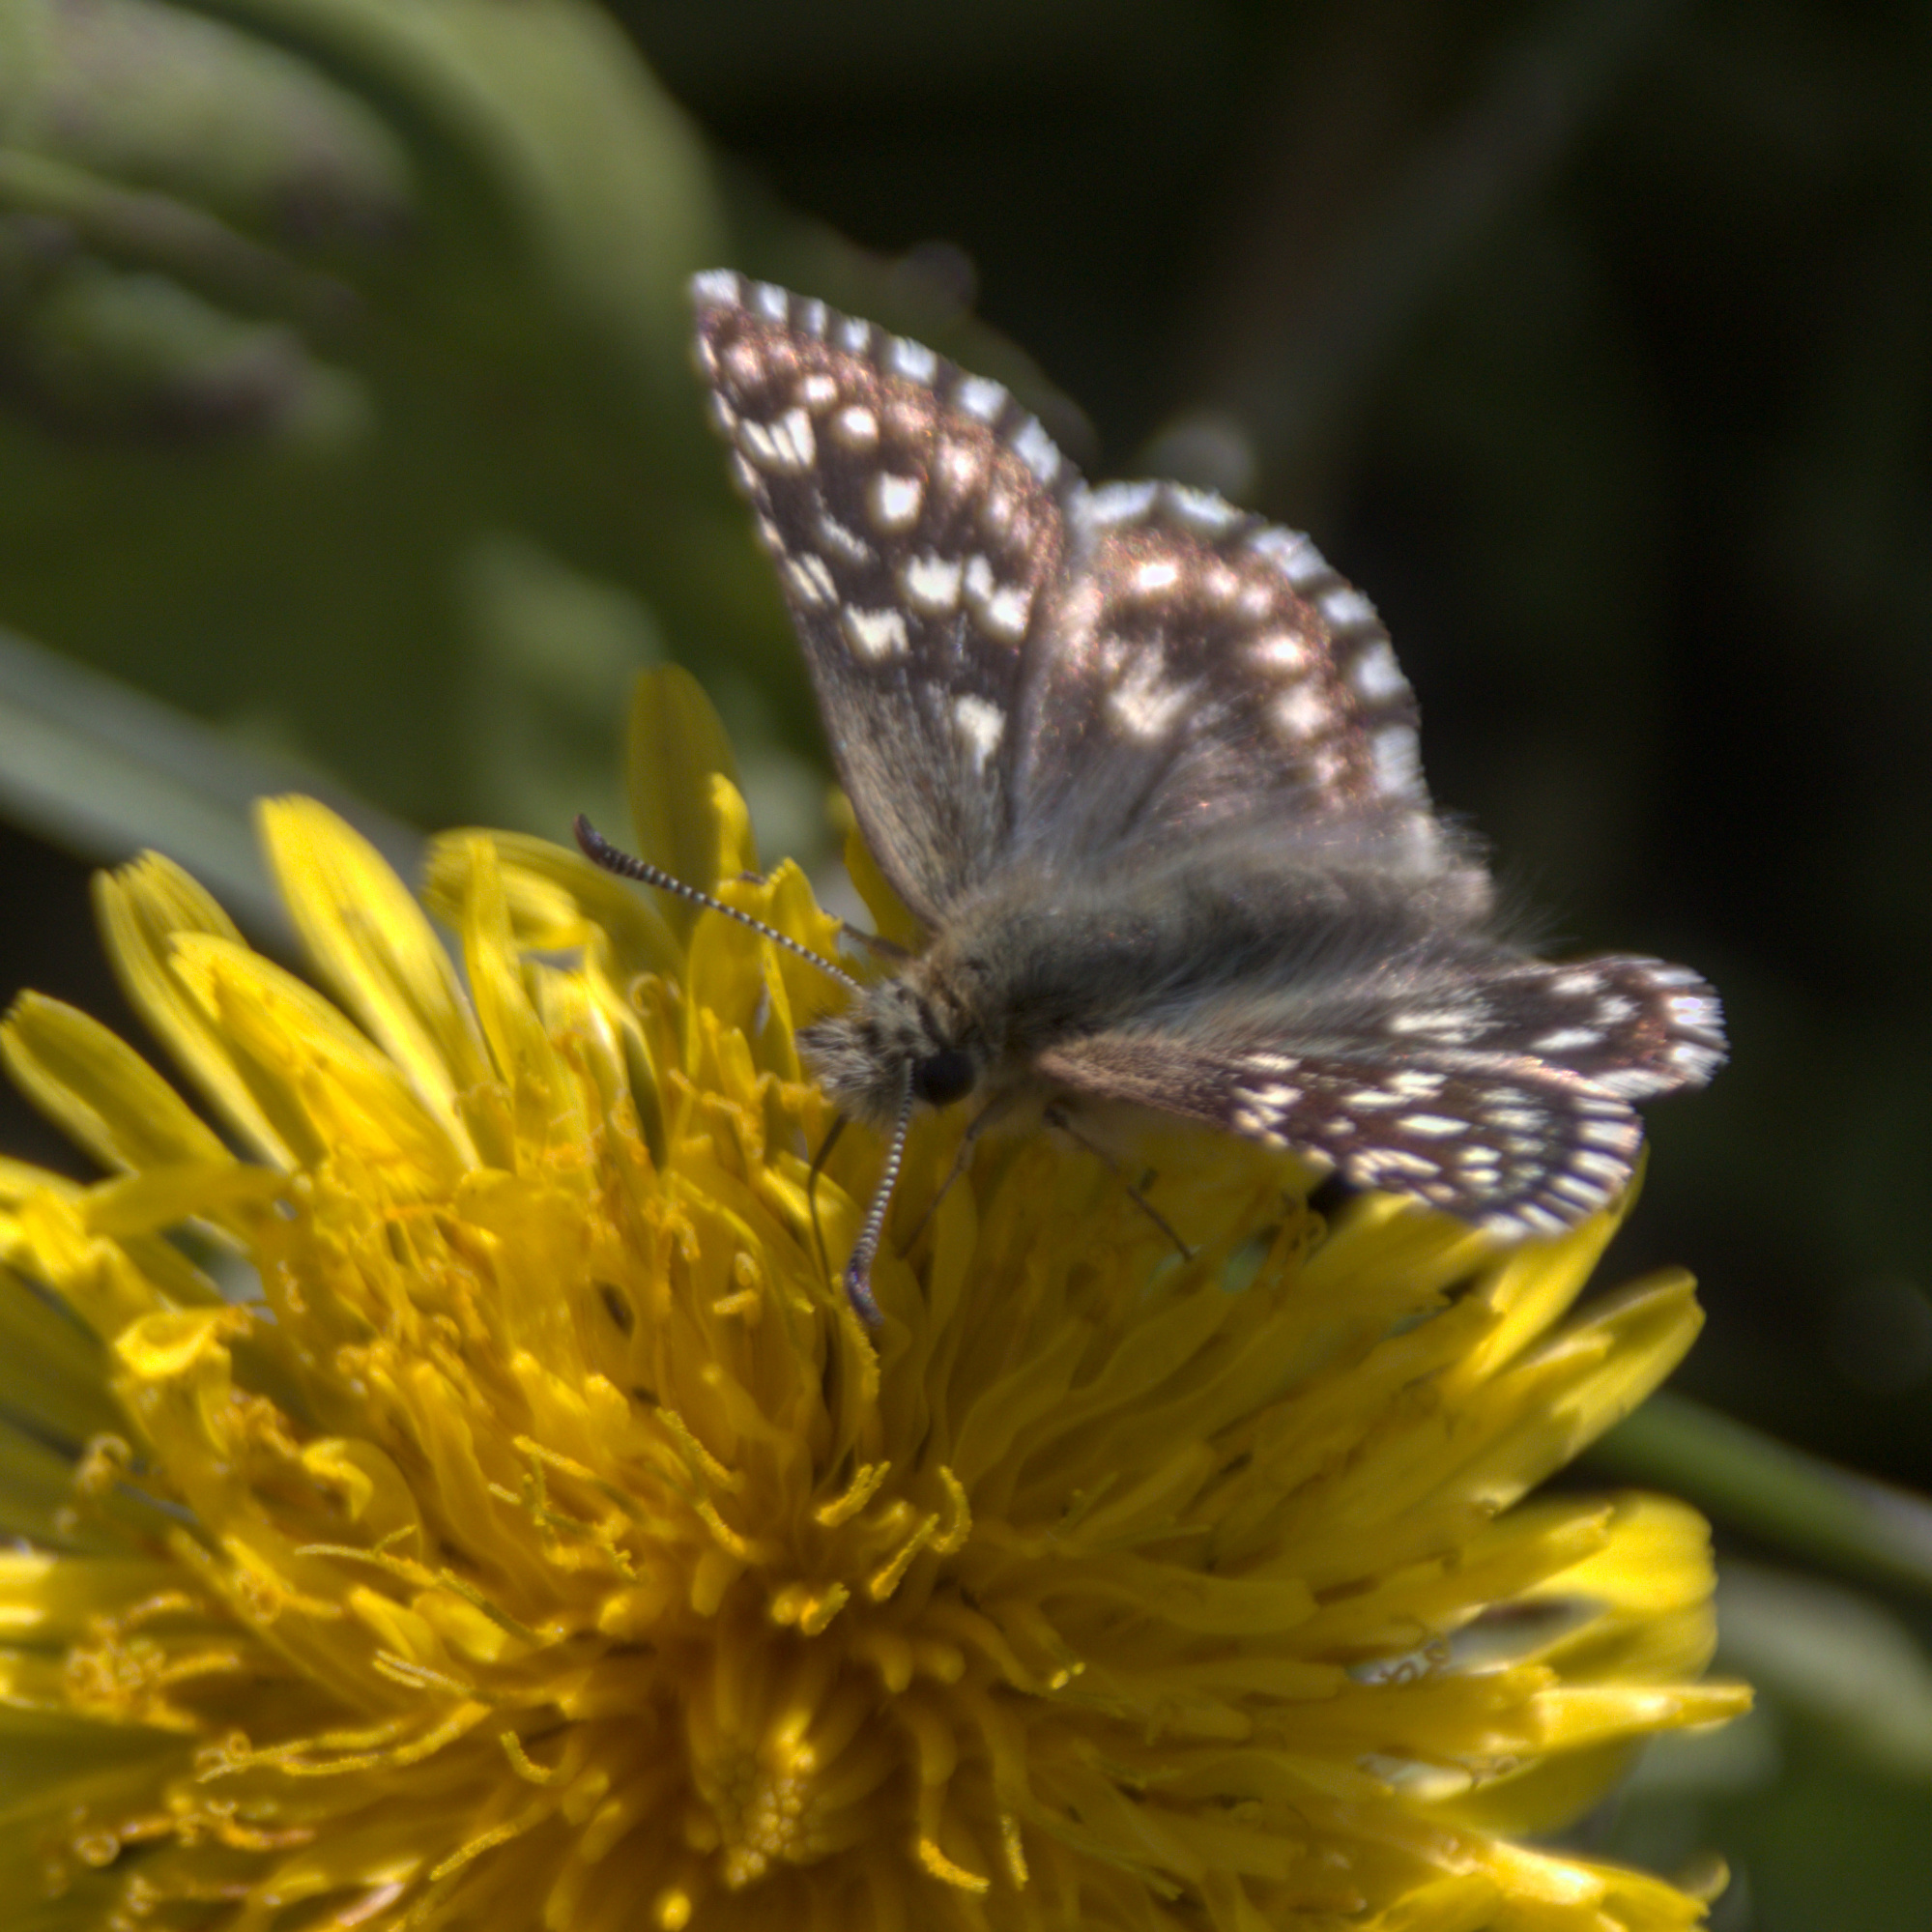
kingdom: Animalia
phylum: Arthropoda
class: Insecta
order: Lepidoptera
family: Hesperiidae
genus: Pyrgus
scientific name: Pyrgus malvae
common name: Grizzled skipper
